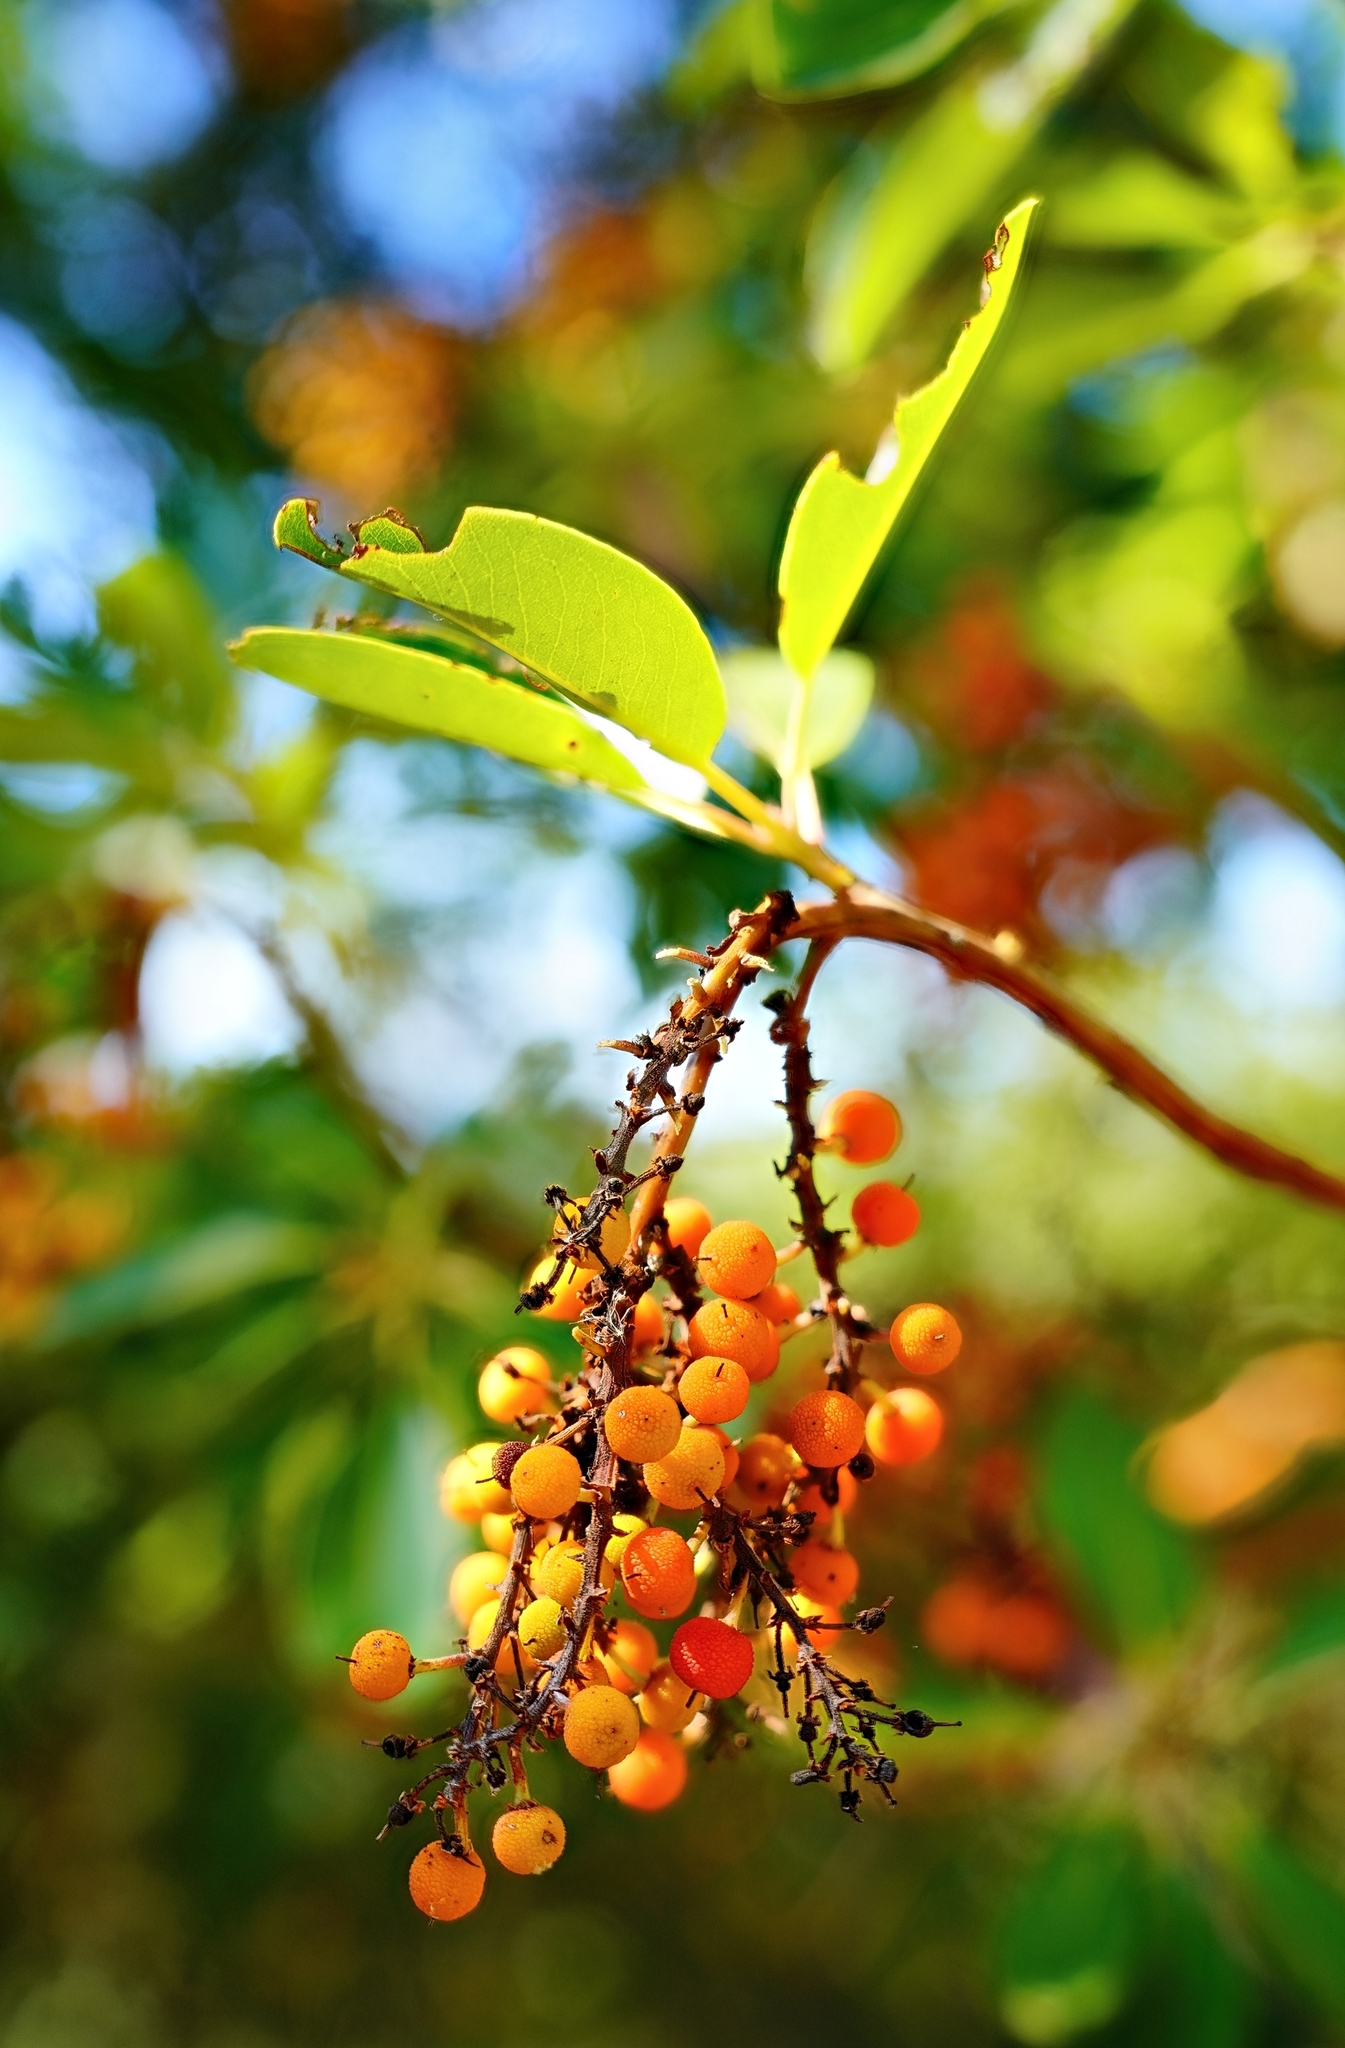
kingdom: Plantae
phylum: Tracheophyta
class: Magnoliopsida
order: Ericales
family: Ericaceae
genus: Arbutus
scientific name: Arbutus menziesii
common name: Pacific madrone
